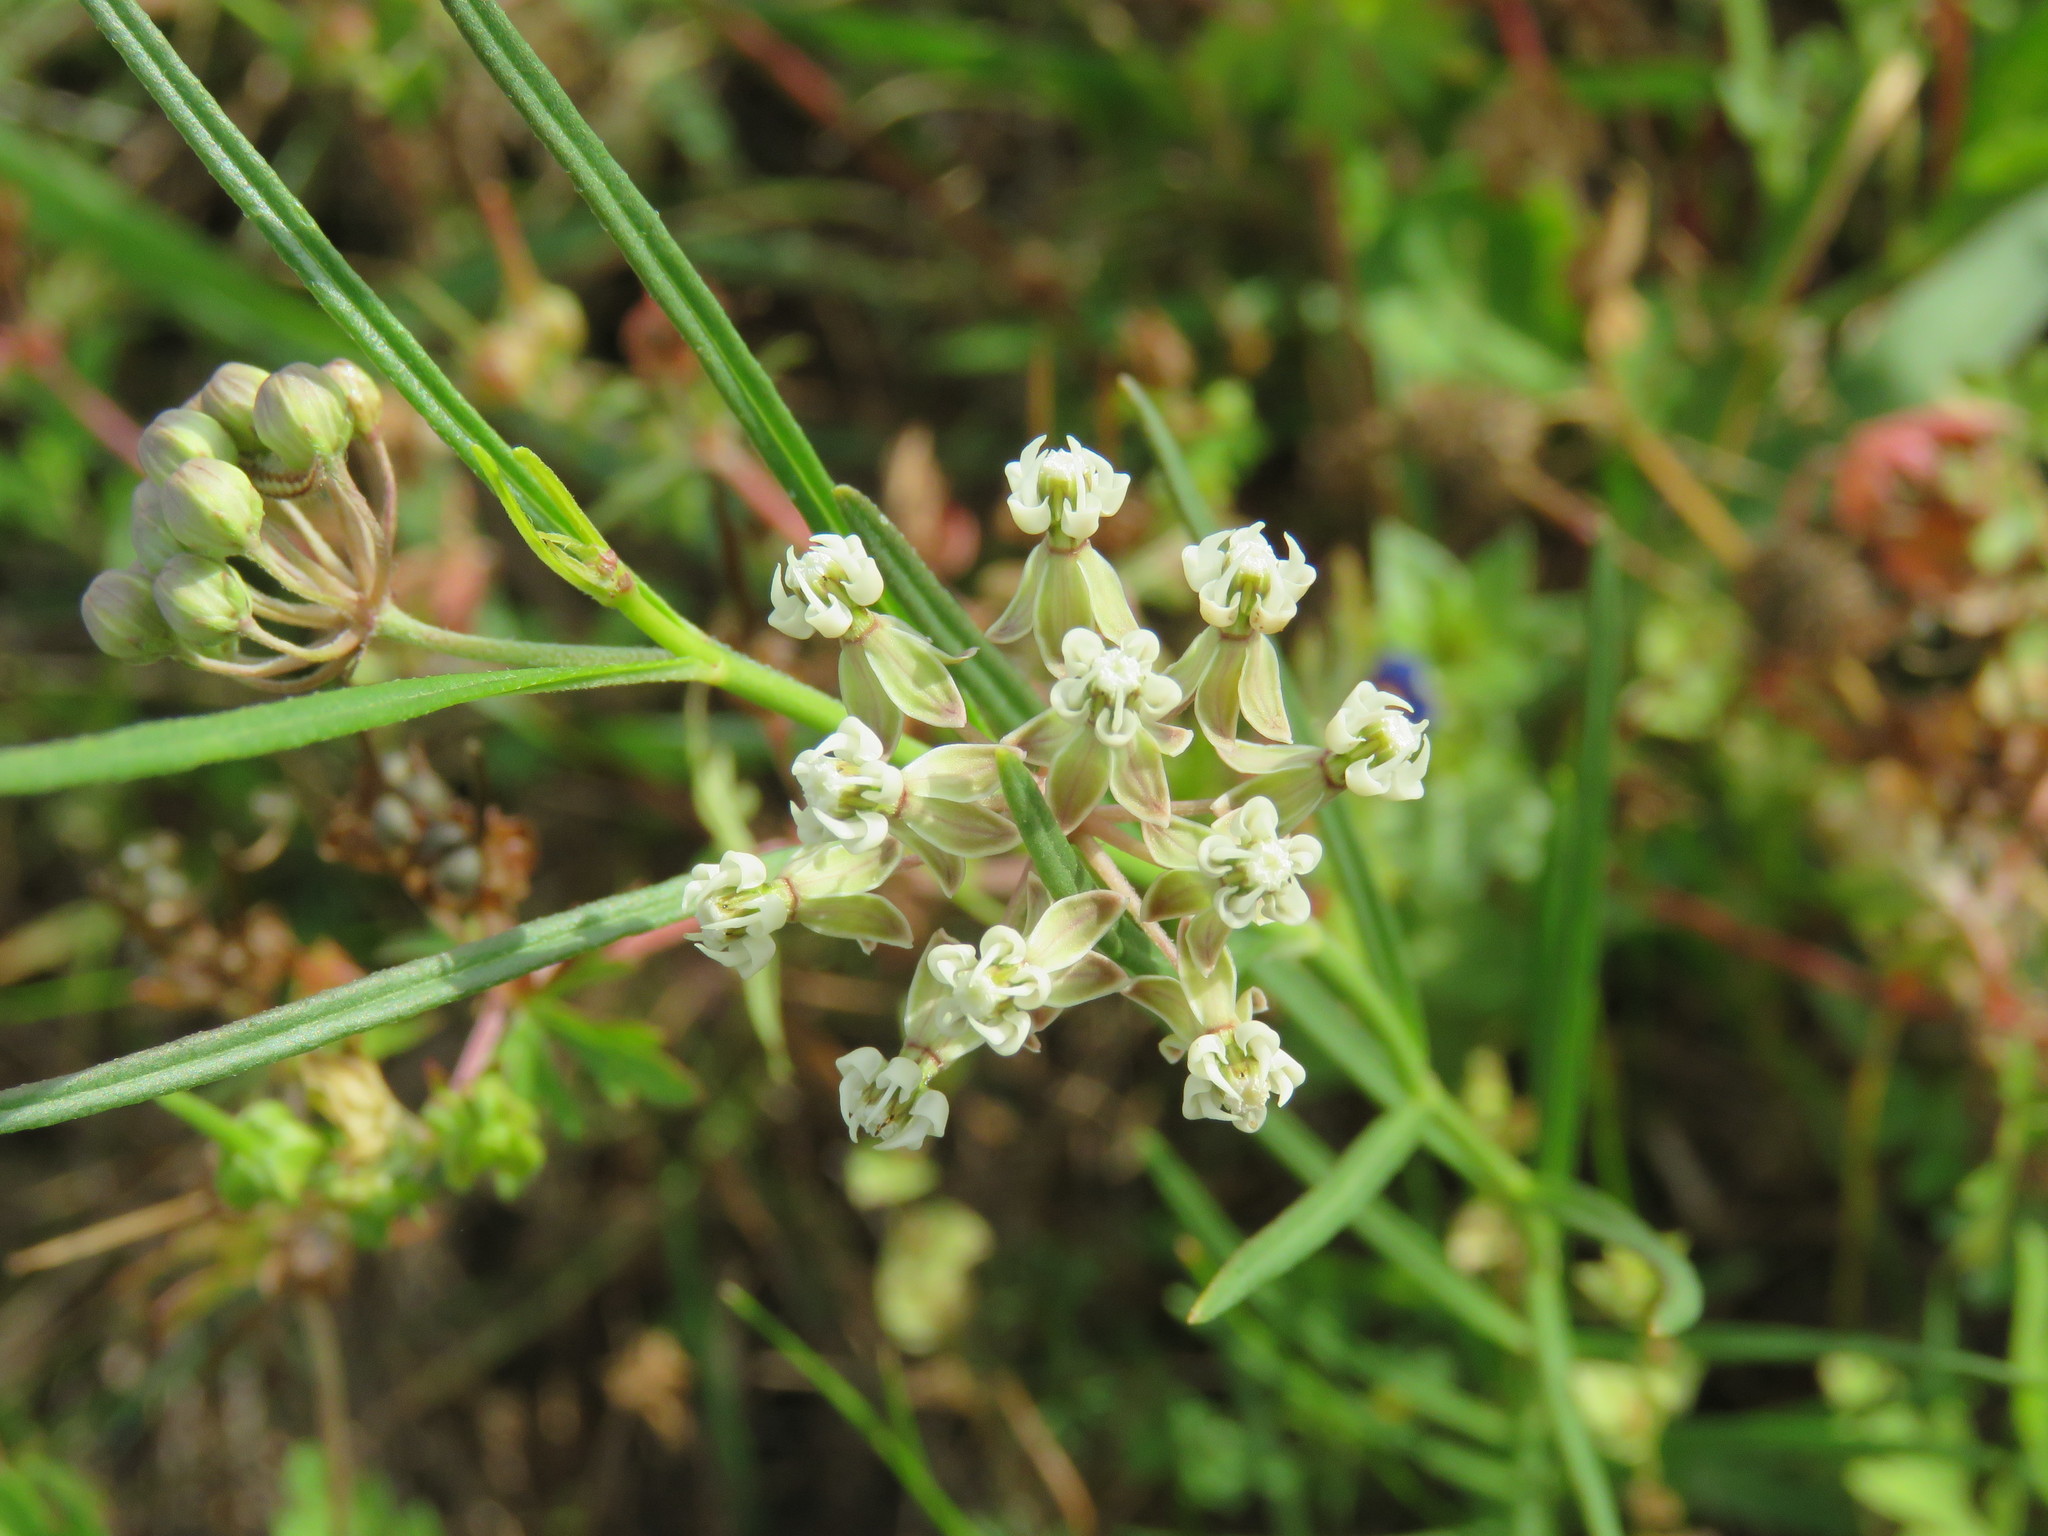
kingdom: Plantae
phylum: Tracheophyta
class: Magnoliopsida
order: Gentianales
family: Apocynaceae
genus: Asclepias
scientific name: Asclepias linearis
